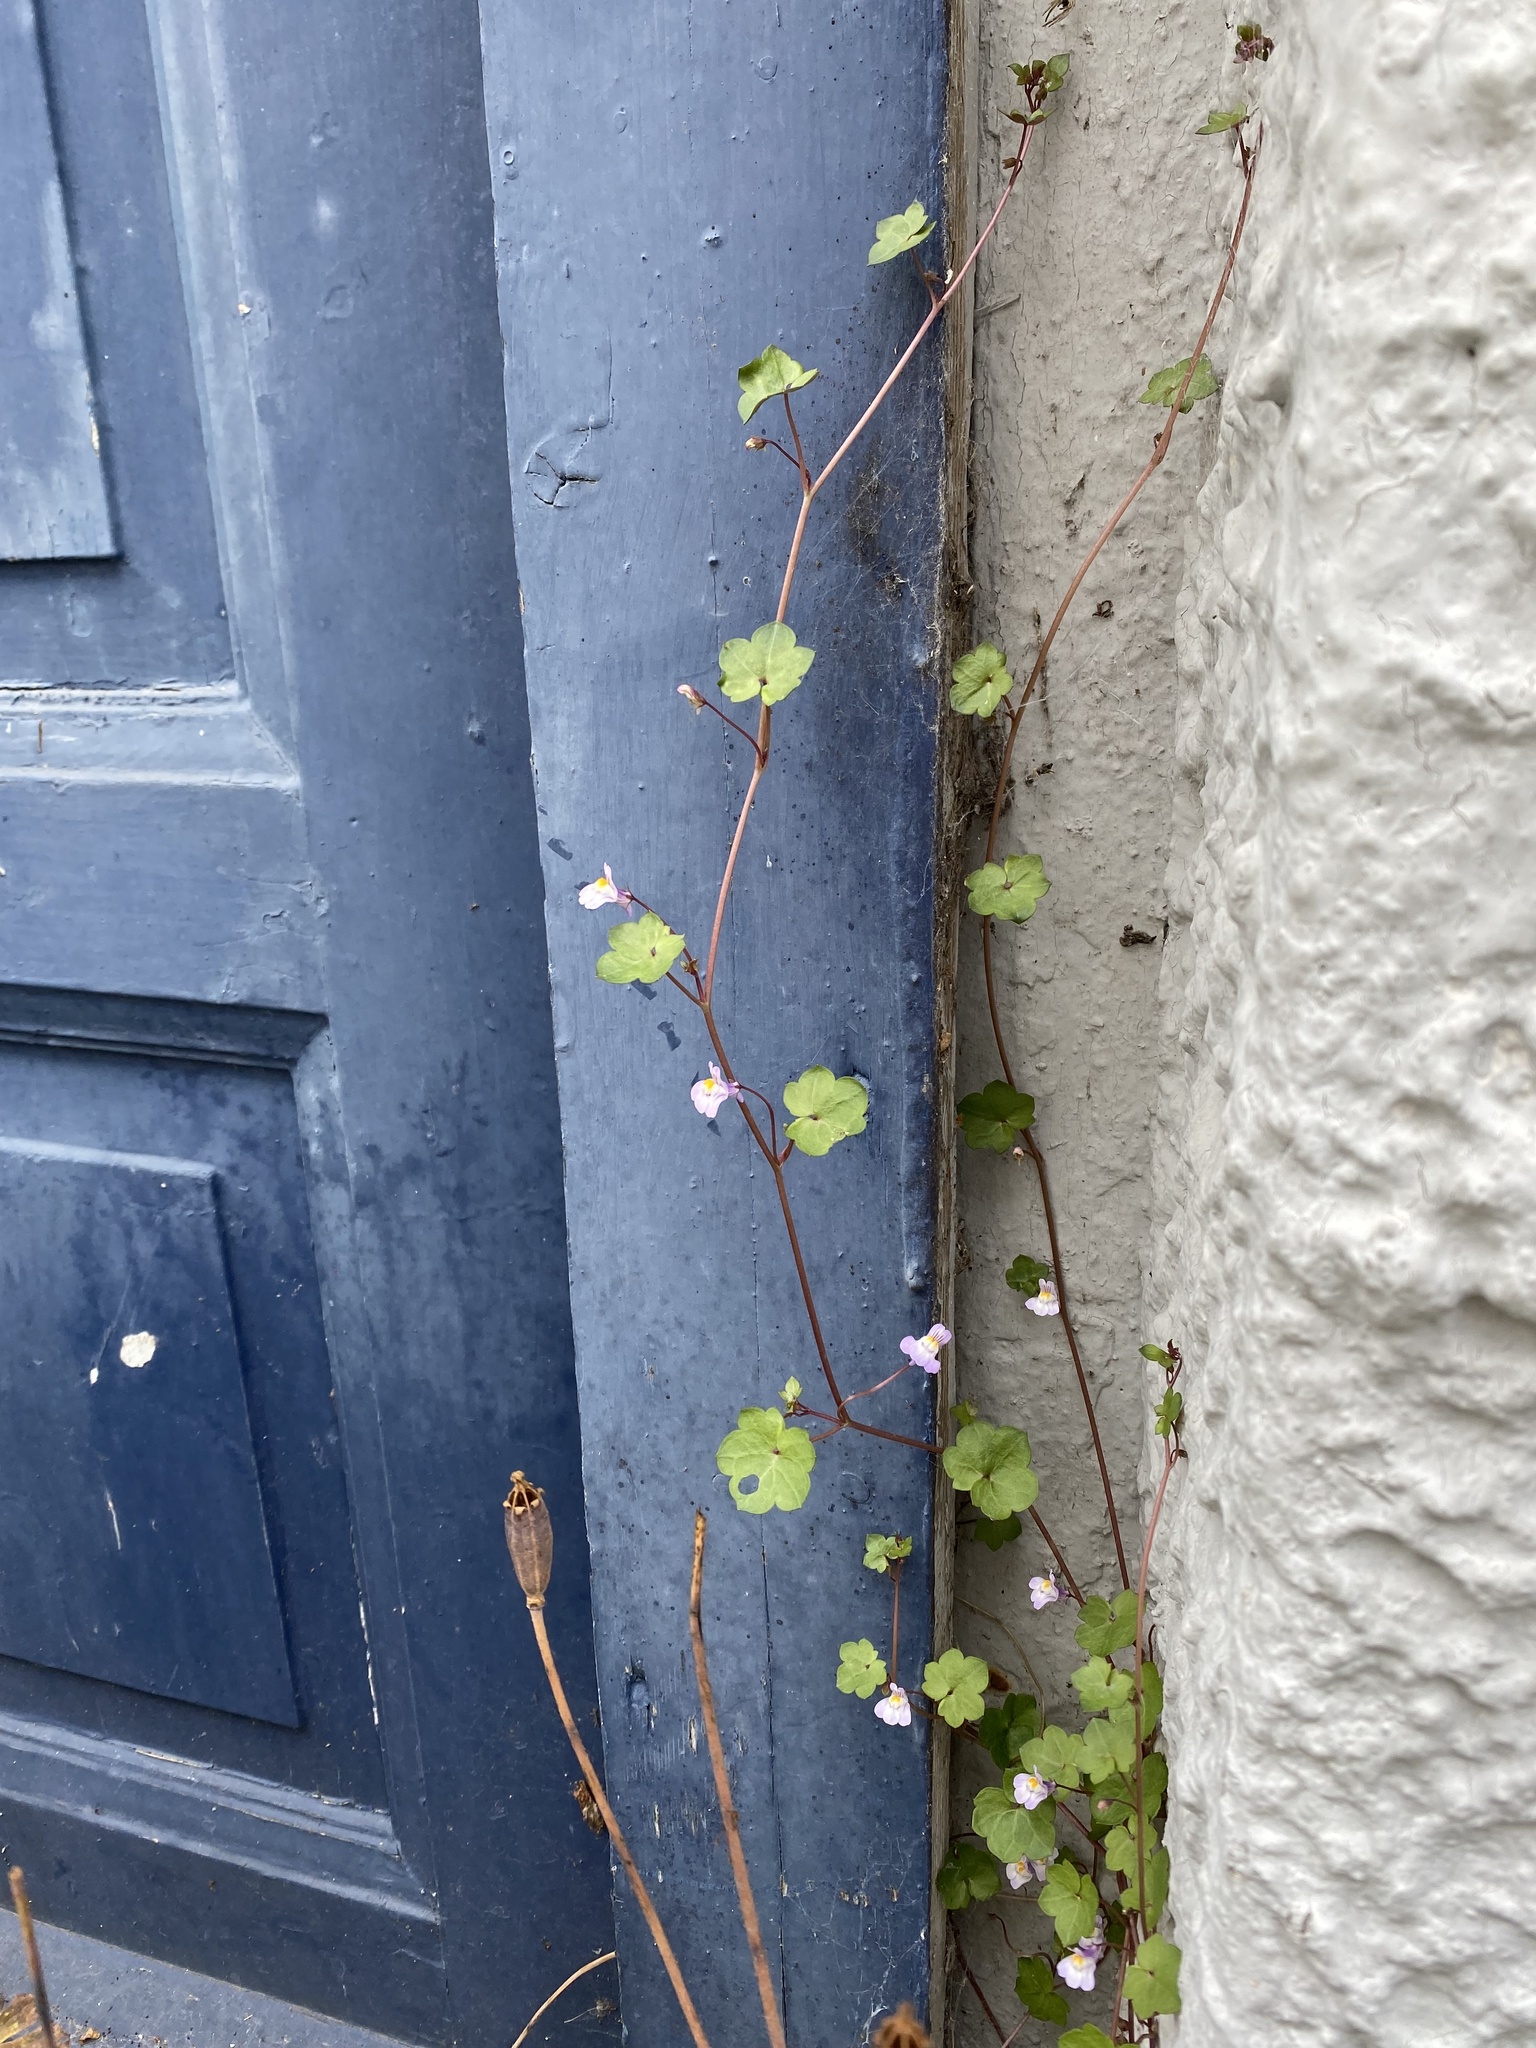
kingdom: Plantae
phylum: Tracheophyta
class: Magnoliopsida
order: Lamiales
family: Plantaginaceae
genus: Cymbalaria
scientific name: Cymbalaria muralis
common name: Ivy-leaved toadflax
